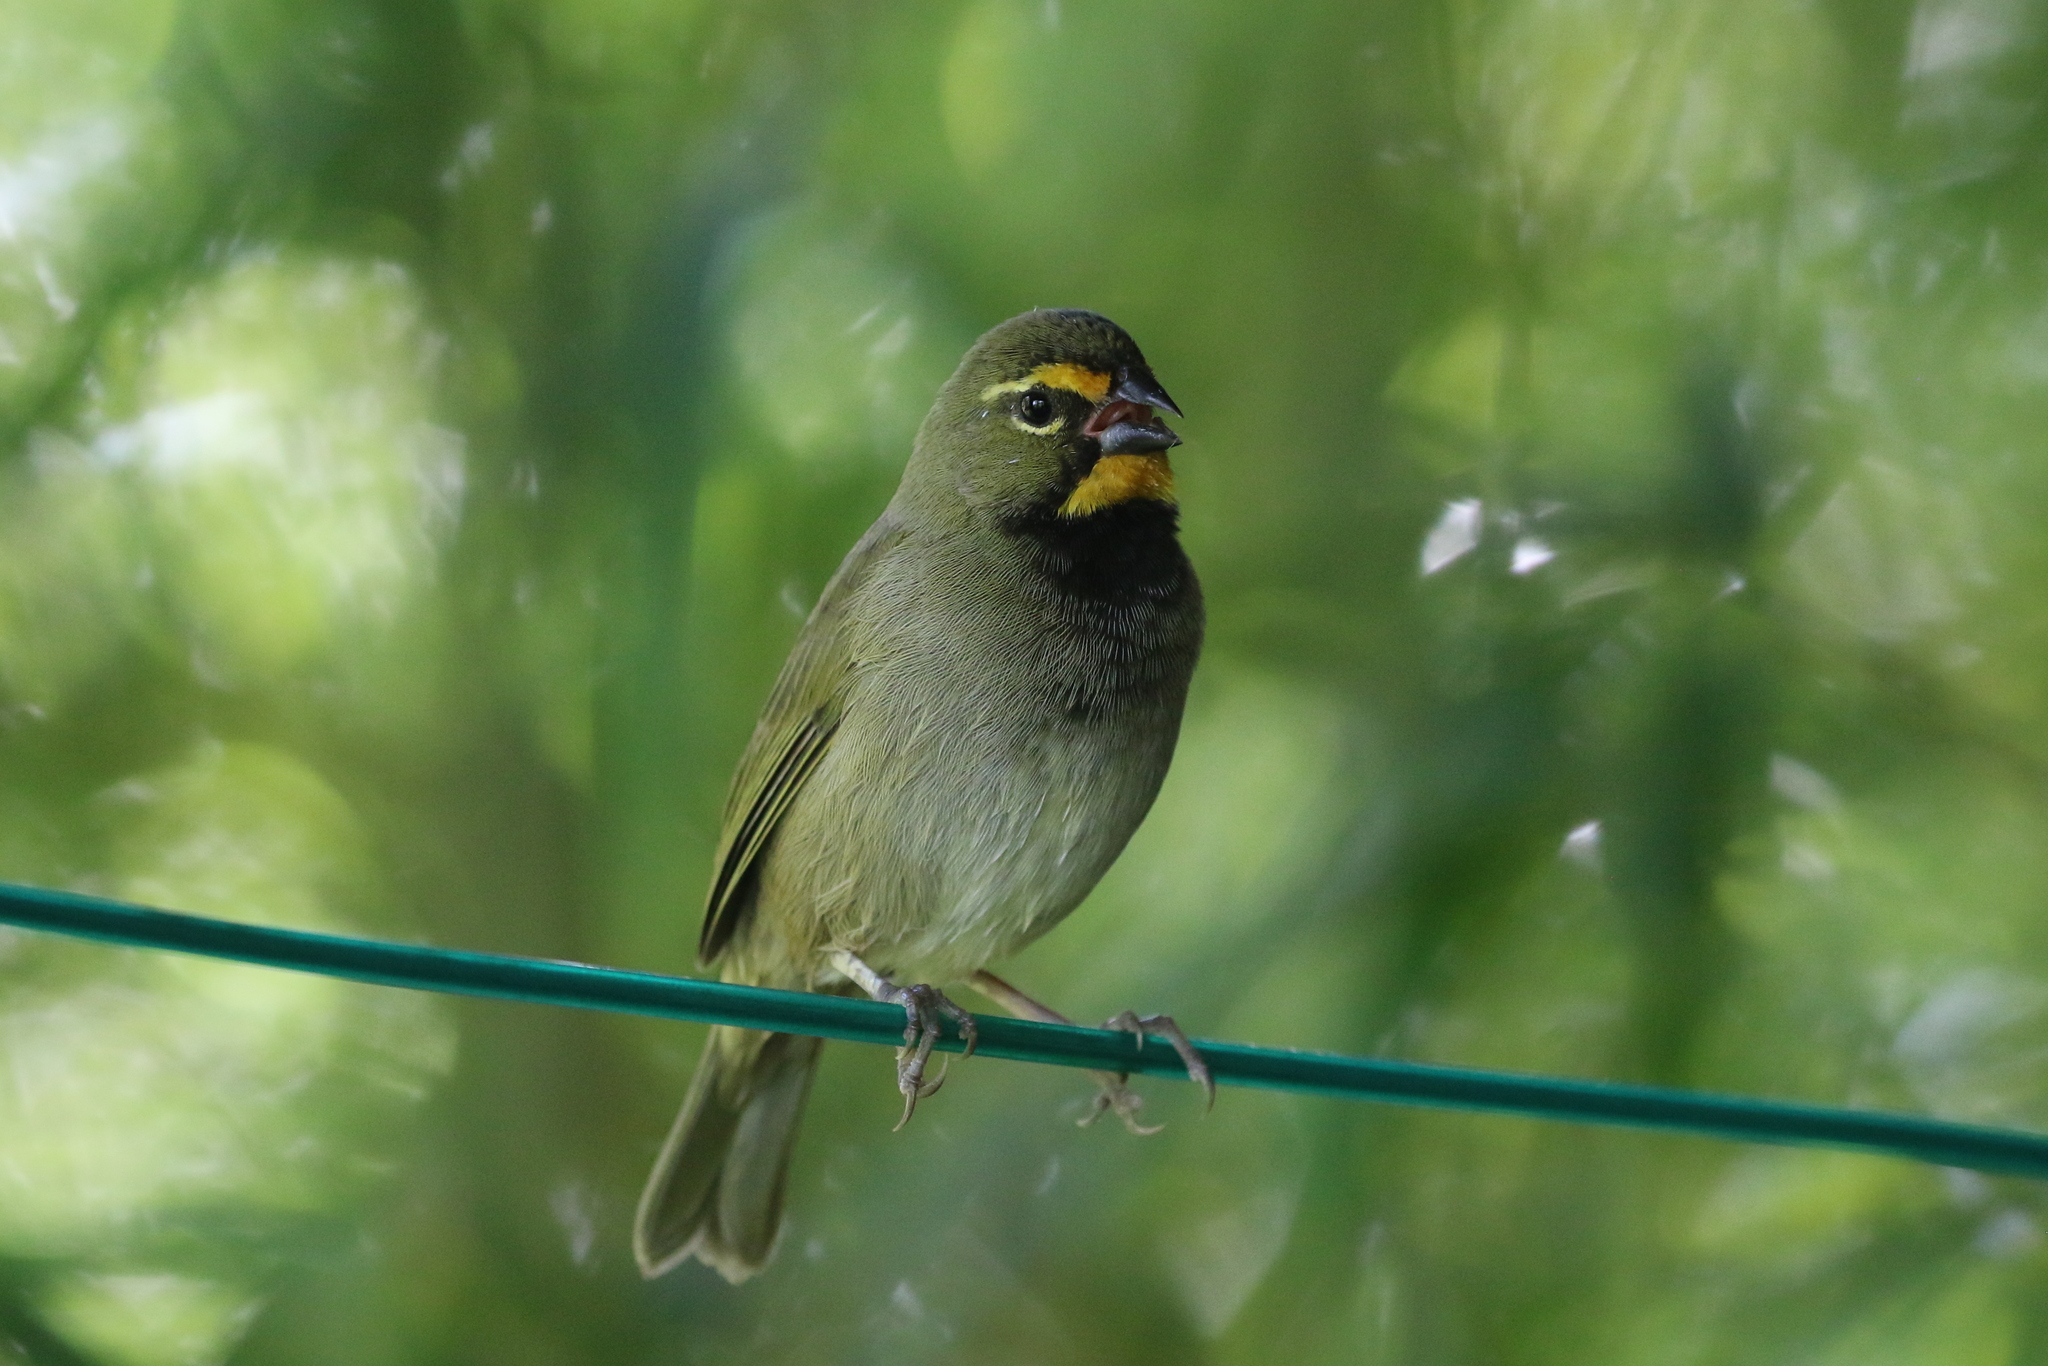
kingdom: Animalia
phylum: Chordata
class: Aves
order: Passeriformes
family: Thraupidae
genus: Tiaris
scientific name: Tiaris olivaceus
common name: Yellow-faced grassquit
